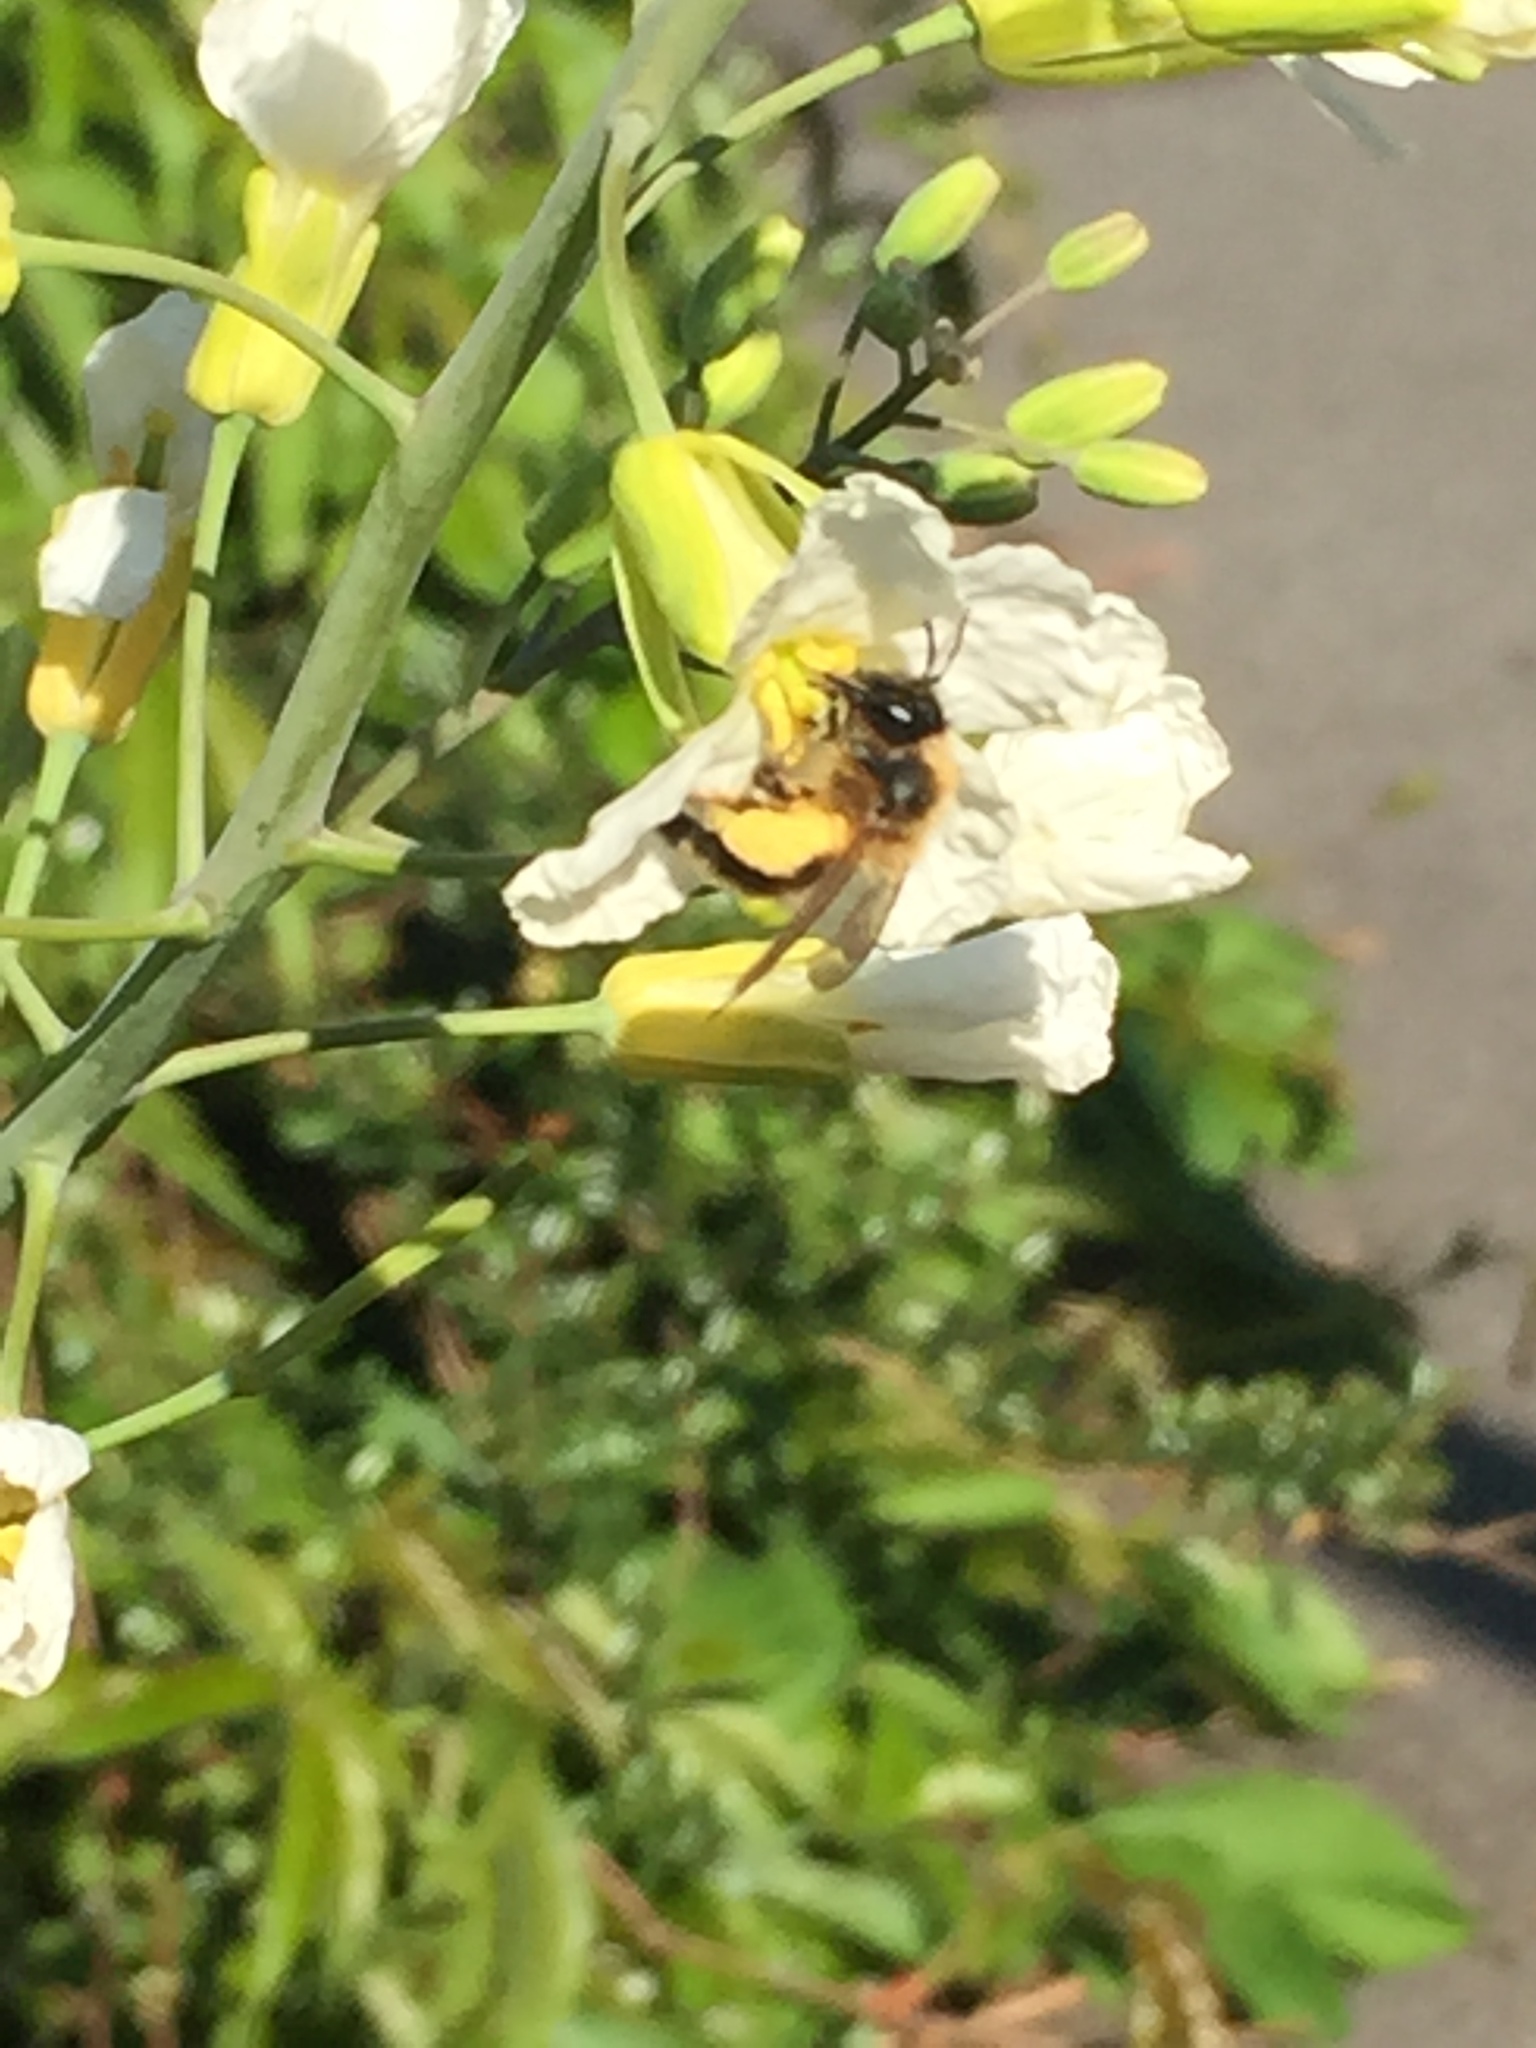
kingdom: Animalia
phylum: Arthropoda
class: Insecta
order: Hymenoptera
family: Andrenidae
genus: Andrena
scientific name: Andrena nigroaenea
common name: Buffish mining bee
